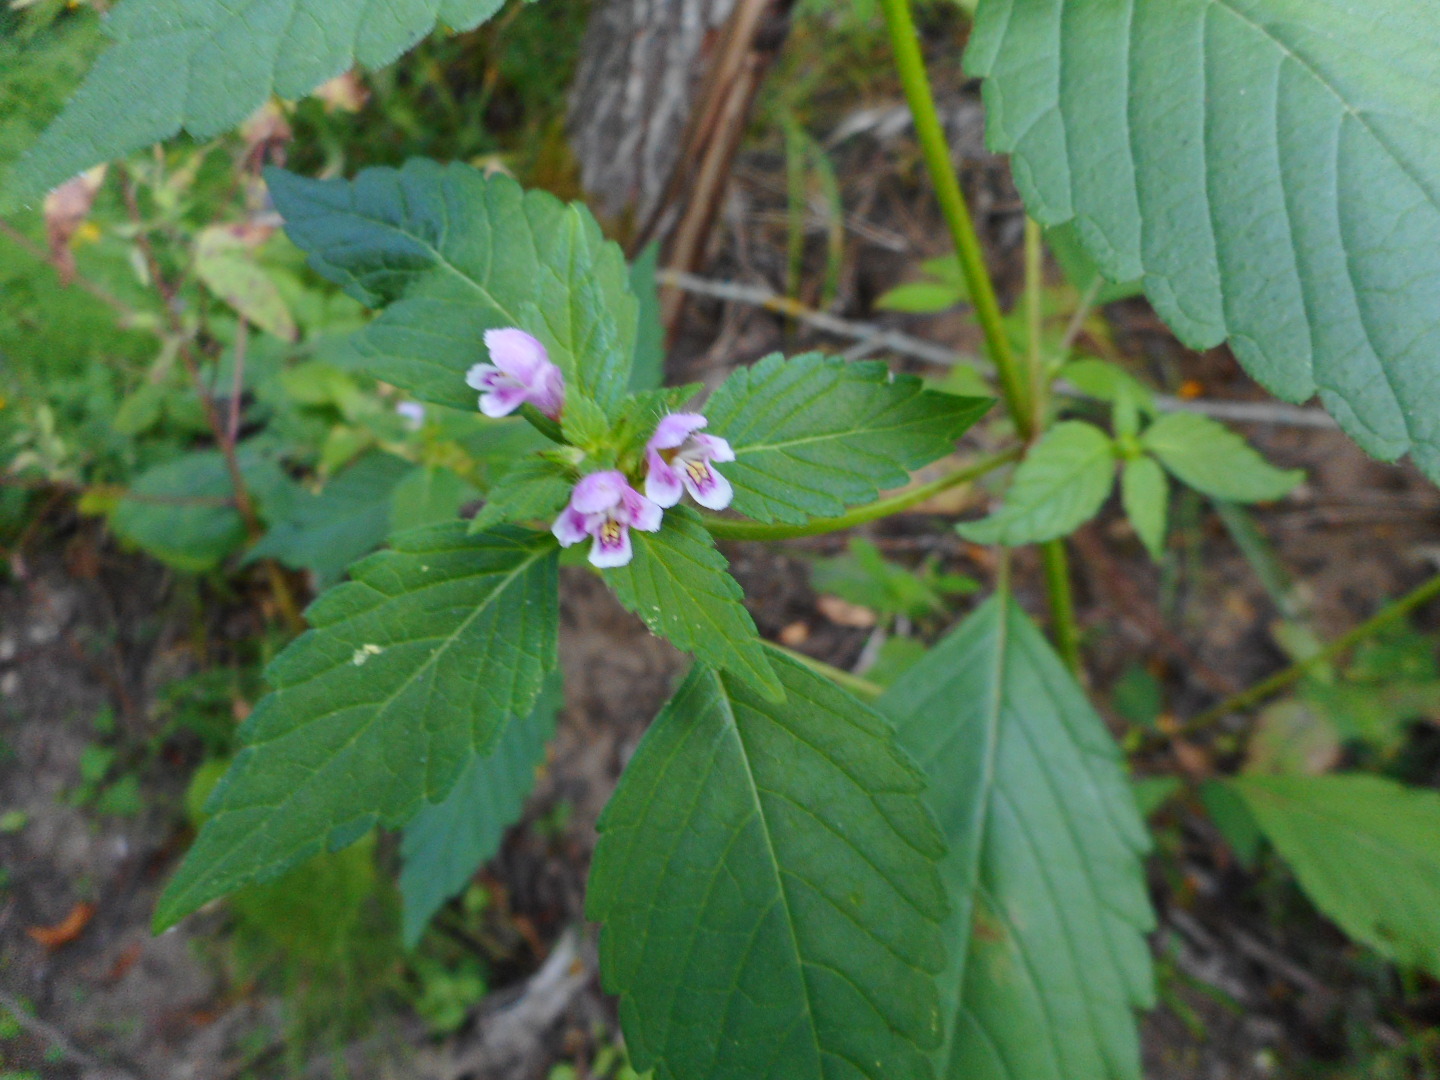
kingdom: Plantae
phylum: Tracheophyta
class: Magnoliopsida
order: Lamiales
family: Lamiaceae
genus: Galeopsis
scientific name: Galeopsis tetrahit
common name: Common hemp-nettle
